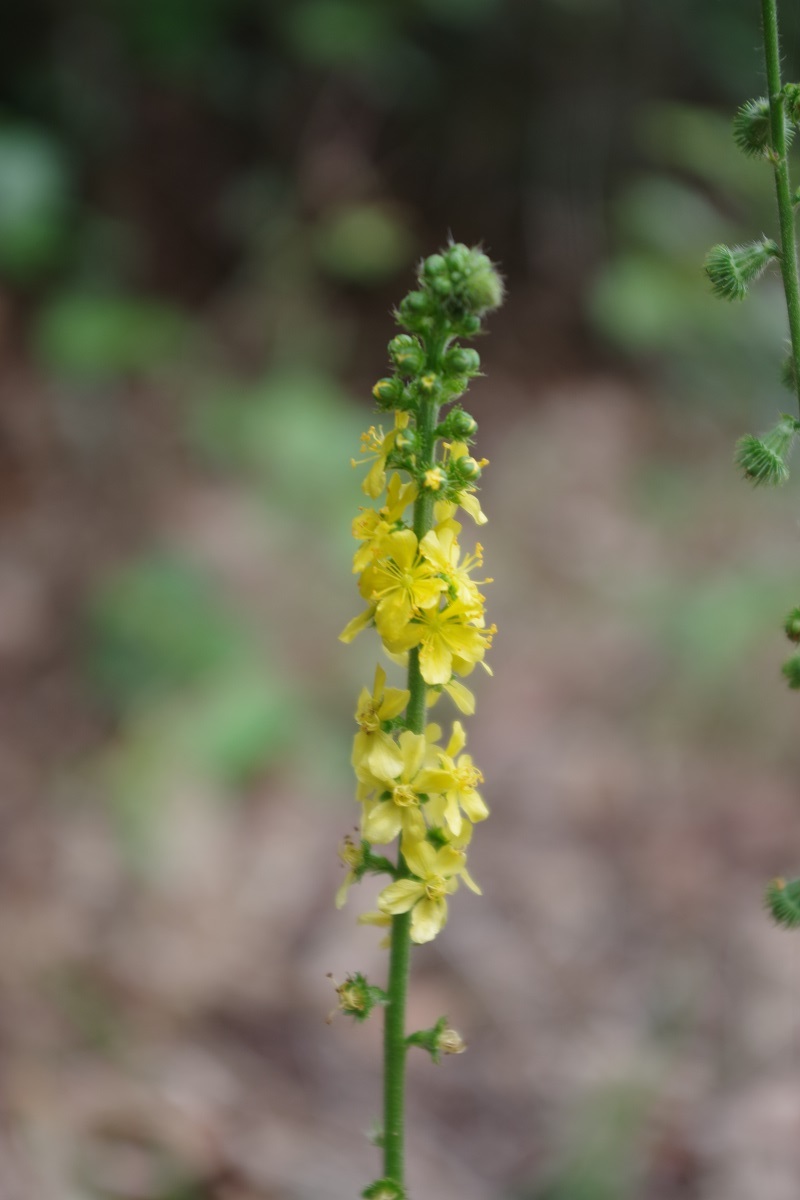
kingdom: Plantae
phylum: Tracheophyta
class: Magnoliopsida
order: Rosales
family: Rosaceae
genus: Agrimonia
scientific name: Agrimonia eupatoria
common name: Agrimony
